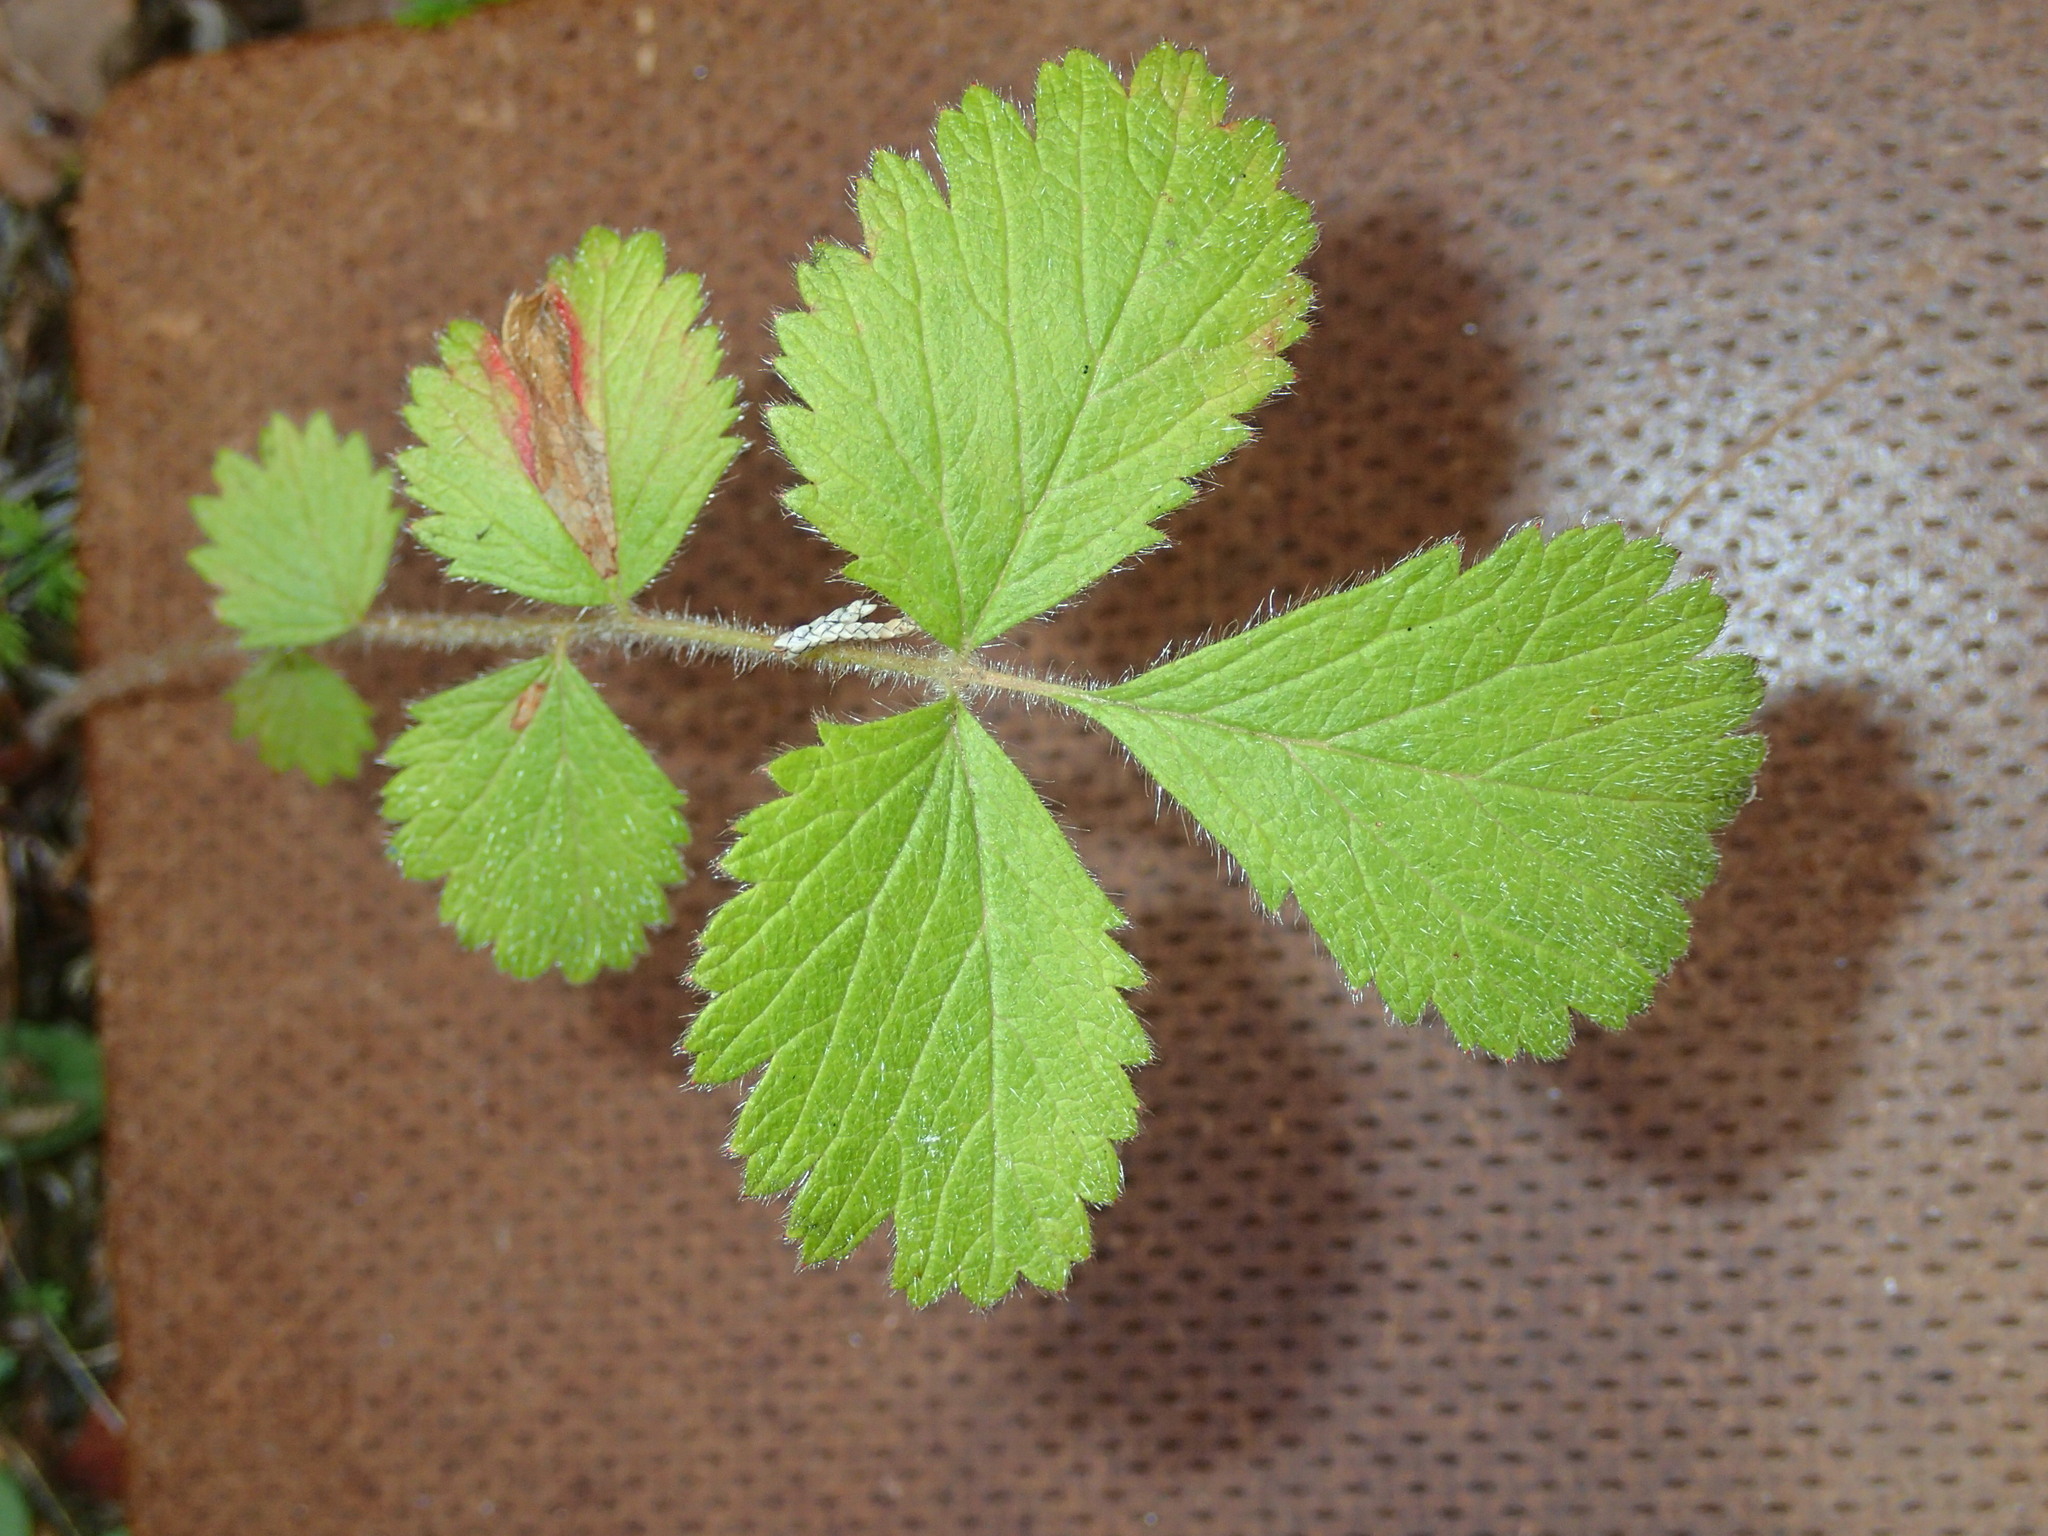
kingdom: Plantae
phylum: Tracheophyta
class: Magnoliopsida
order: Rosales
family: Rosaceae
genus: Drymocallis
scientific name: Drymocallis arguta
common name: Tall cinquefoil
